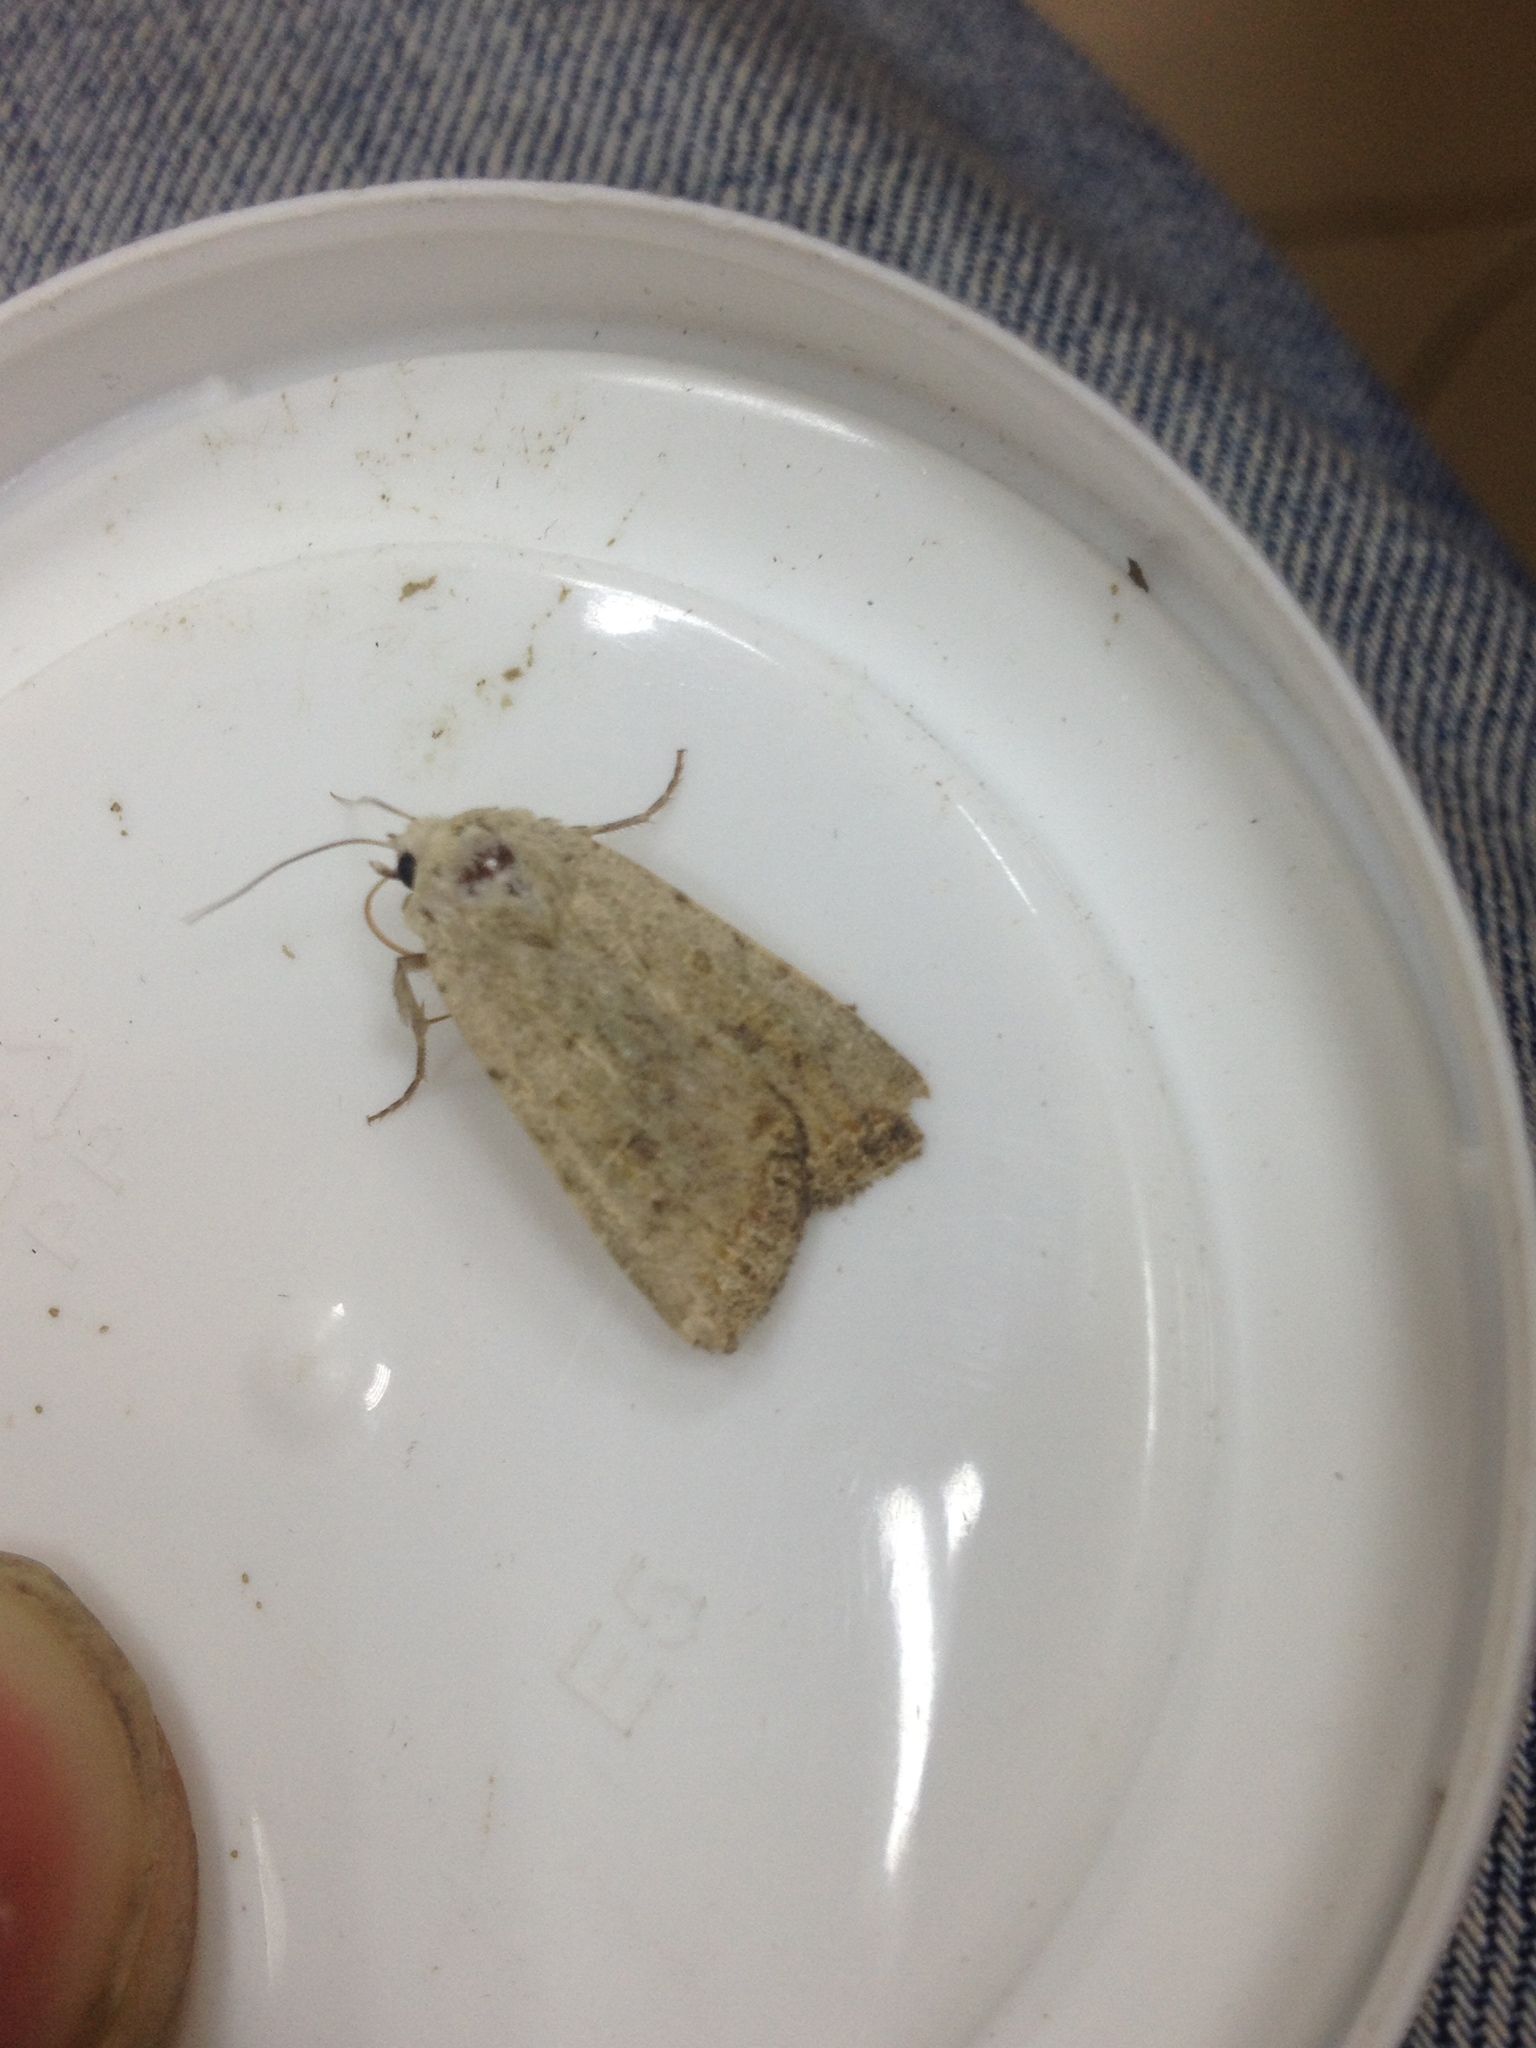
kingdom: Animalia
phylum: Arthropoda
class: Insecta
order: Lepidoptera
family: Noctuidae
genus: Caradrina
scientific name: Caradrina clavipalpis
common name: Pale mottled willow
